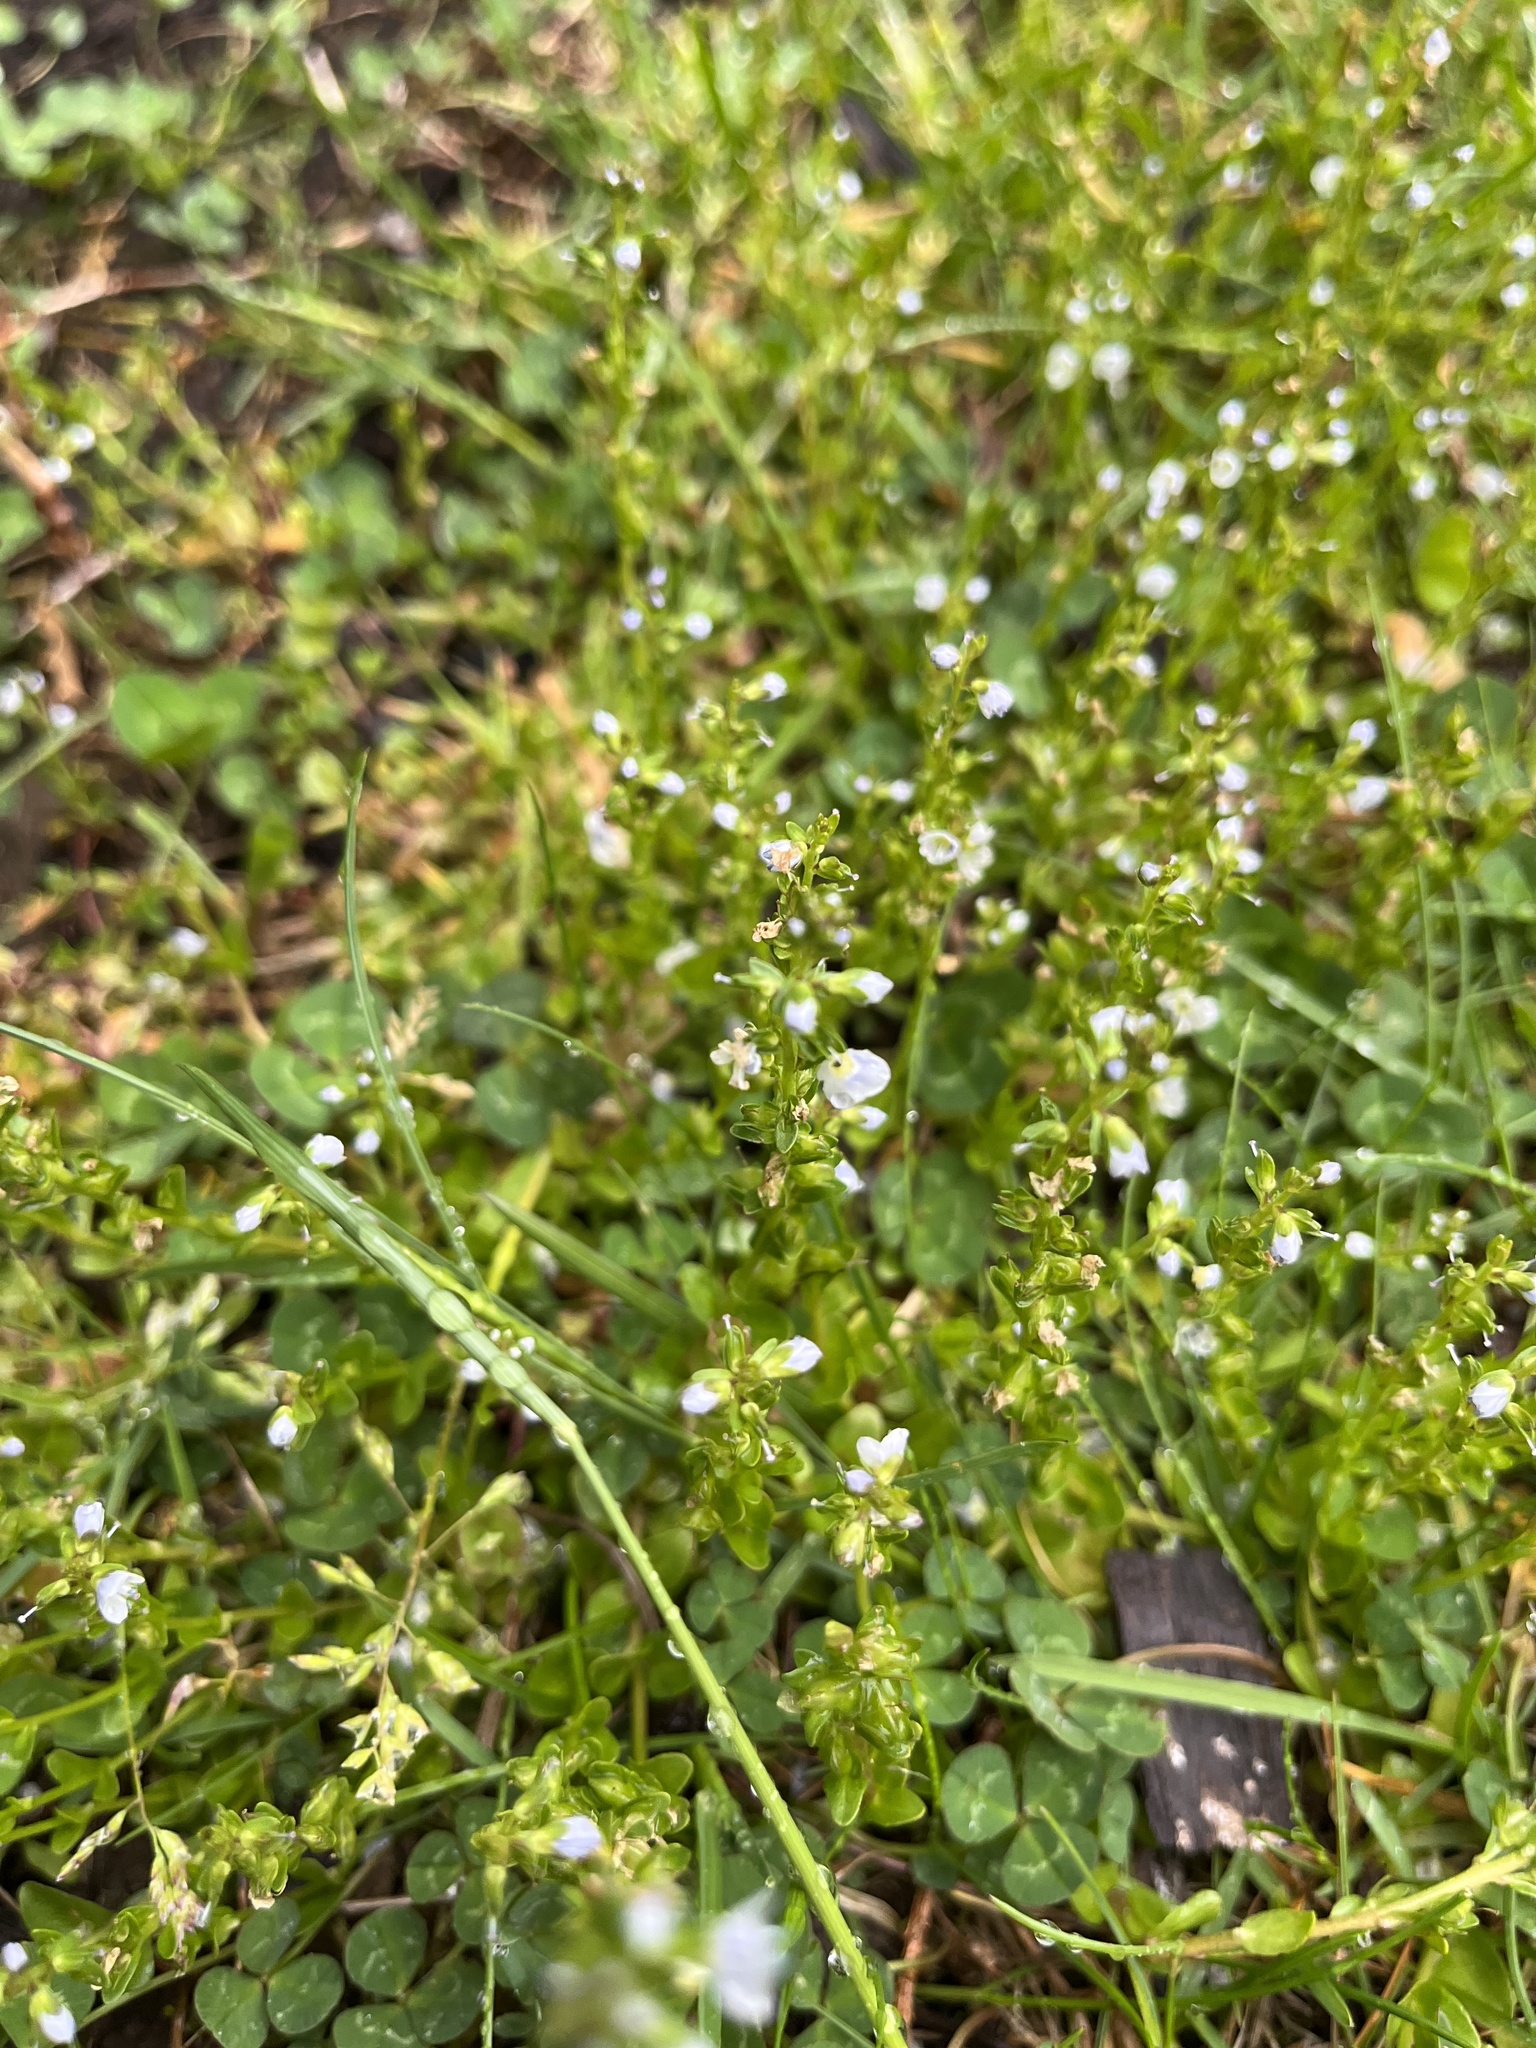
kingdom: Plantae
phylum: Tracheophyta
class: Magnoliopsida
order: Lamiales
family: Plantaginaceae
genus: Veronica
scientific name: Veronica serpyllifolia
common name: Thyme-leaved speedwell
